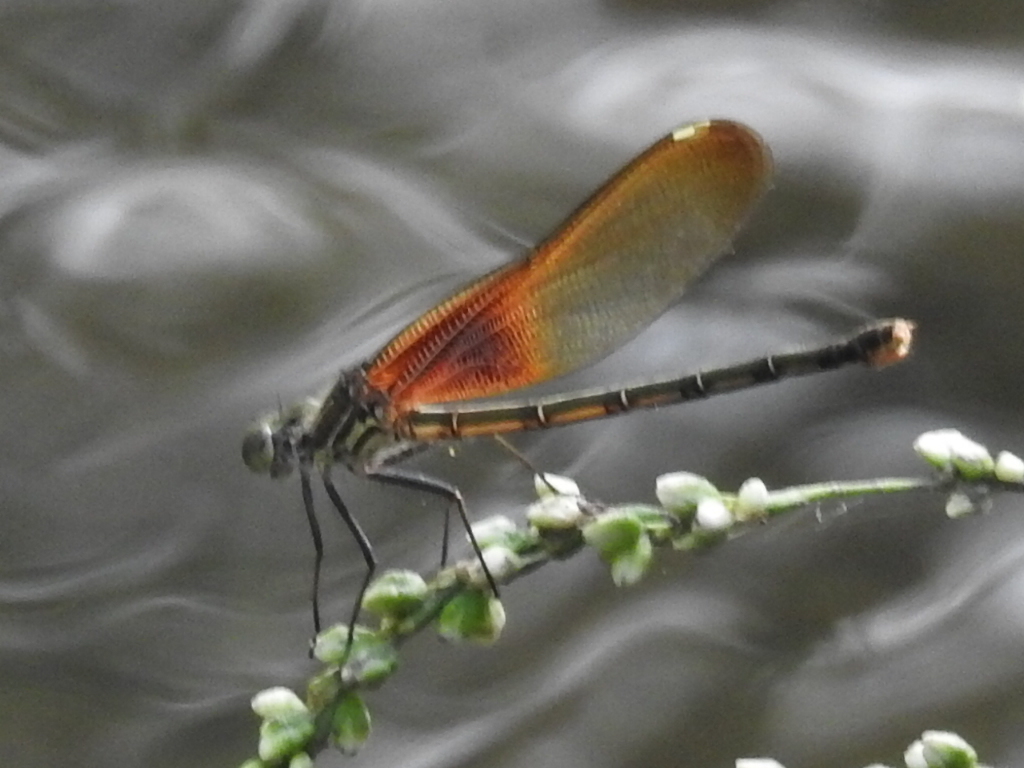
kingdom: Animalia
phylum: Arthropoda
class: Insecta
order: Odonata
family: Calopterygidae
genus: Hetaerina
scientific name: Hetaerina americana
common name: American rubyspot
